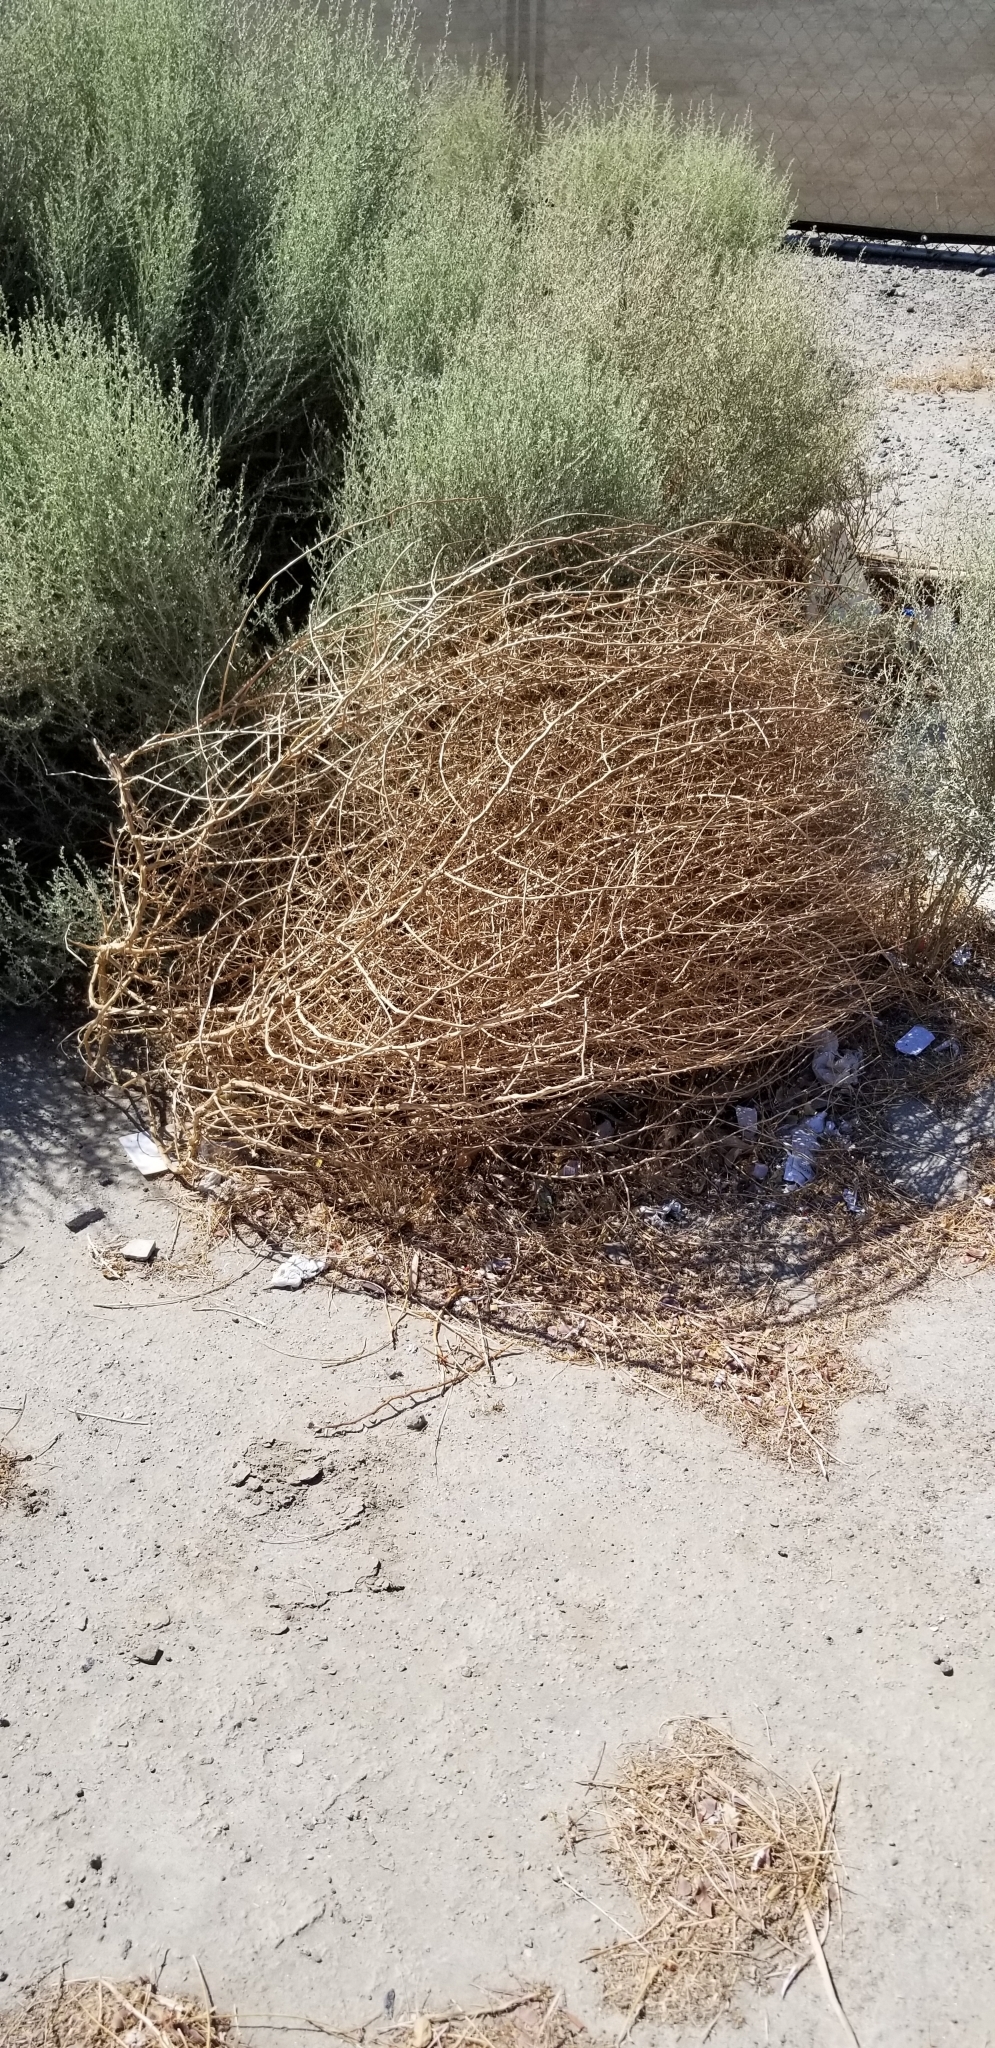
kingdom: Plantae
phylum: Tracheophyta
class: Magnoliopsida
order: Caryophyllales
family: Amaranthaceae
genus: Salsola
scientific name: Salsola tragus
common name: Prickly russian thistle
